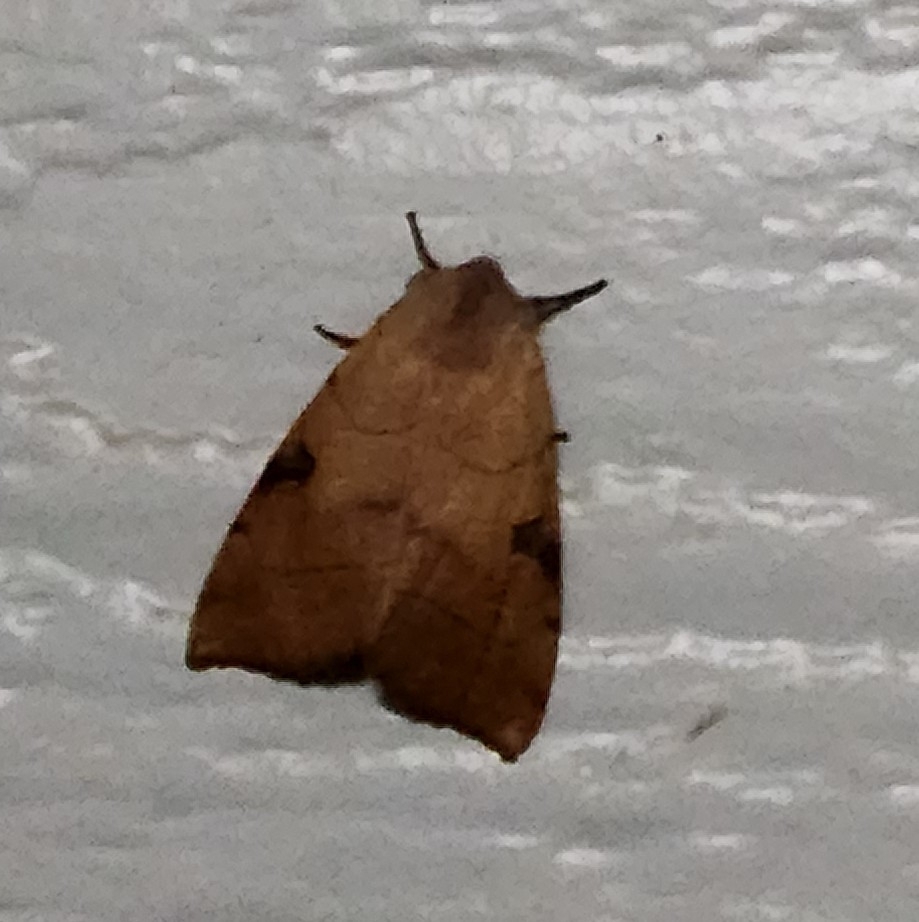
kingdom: Animalia
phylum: Arthropoda
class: Insecta
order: Lepidoptera
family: Noctuidae
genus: Choephora
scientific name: Choephora fungorum
